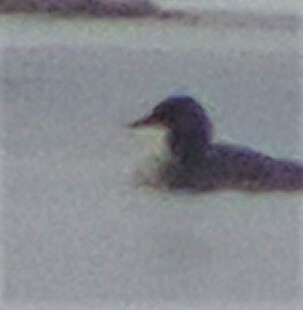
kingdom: Animalia
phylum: Chordata
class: Aves
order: Anseriformes
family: Anatidae
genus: Mergus
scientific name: Mergus merganser
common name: Common merganser
